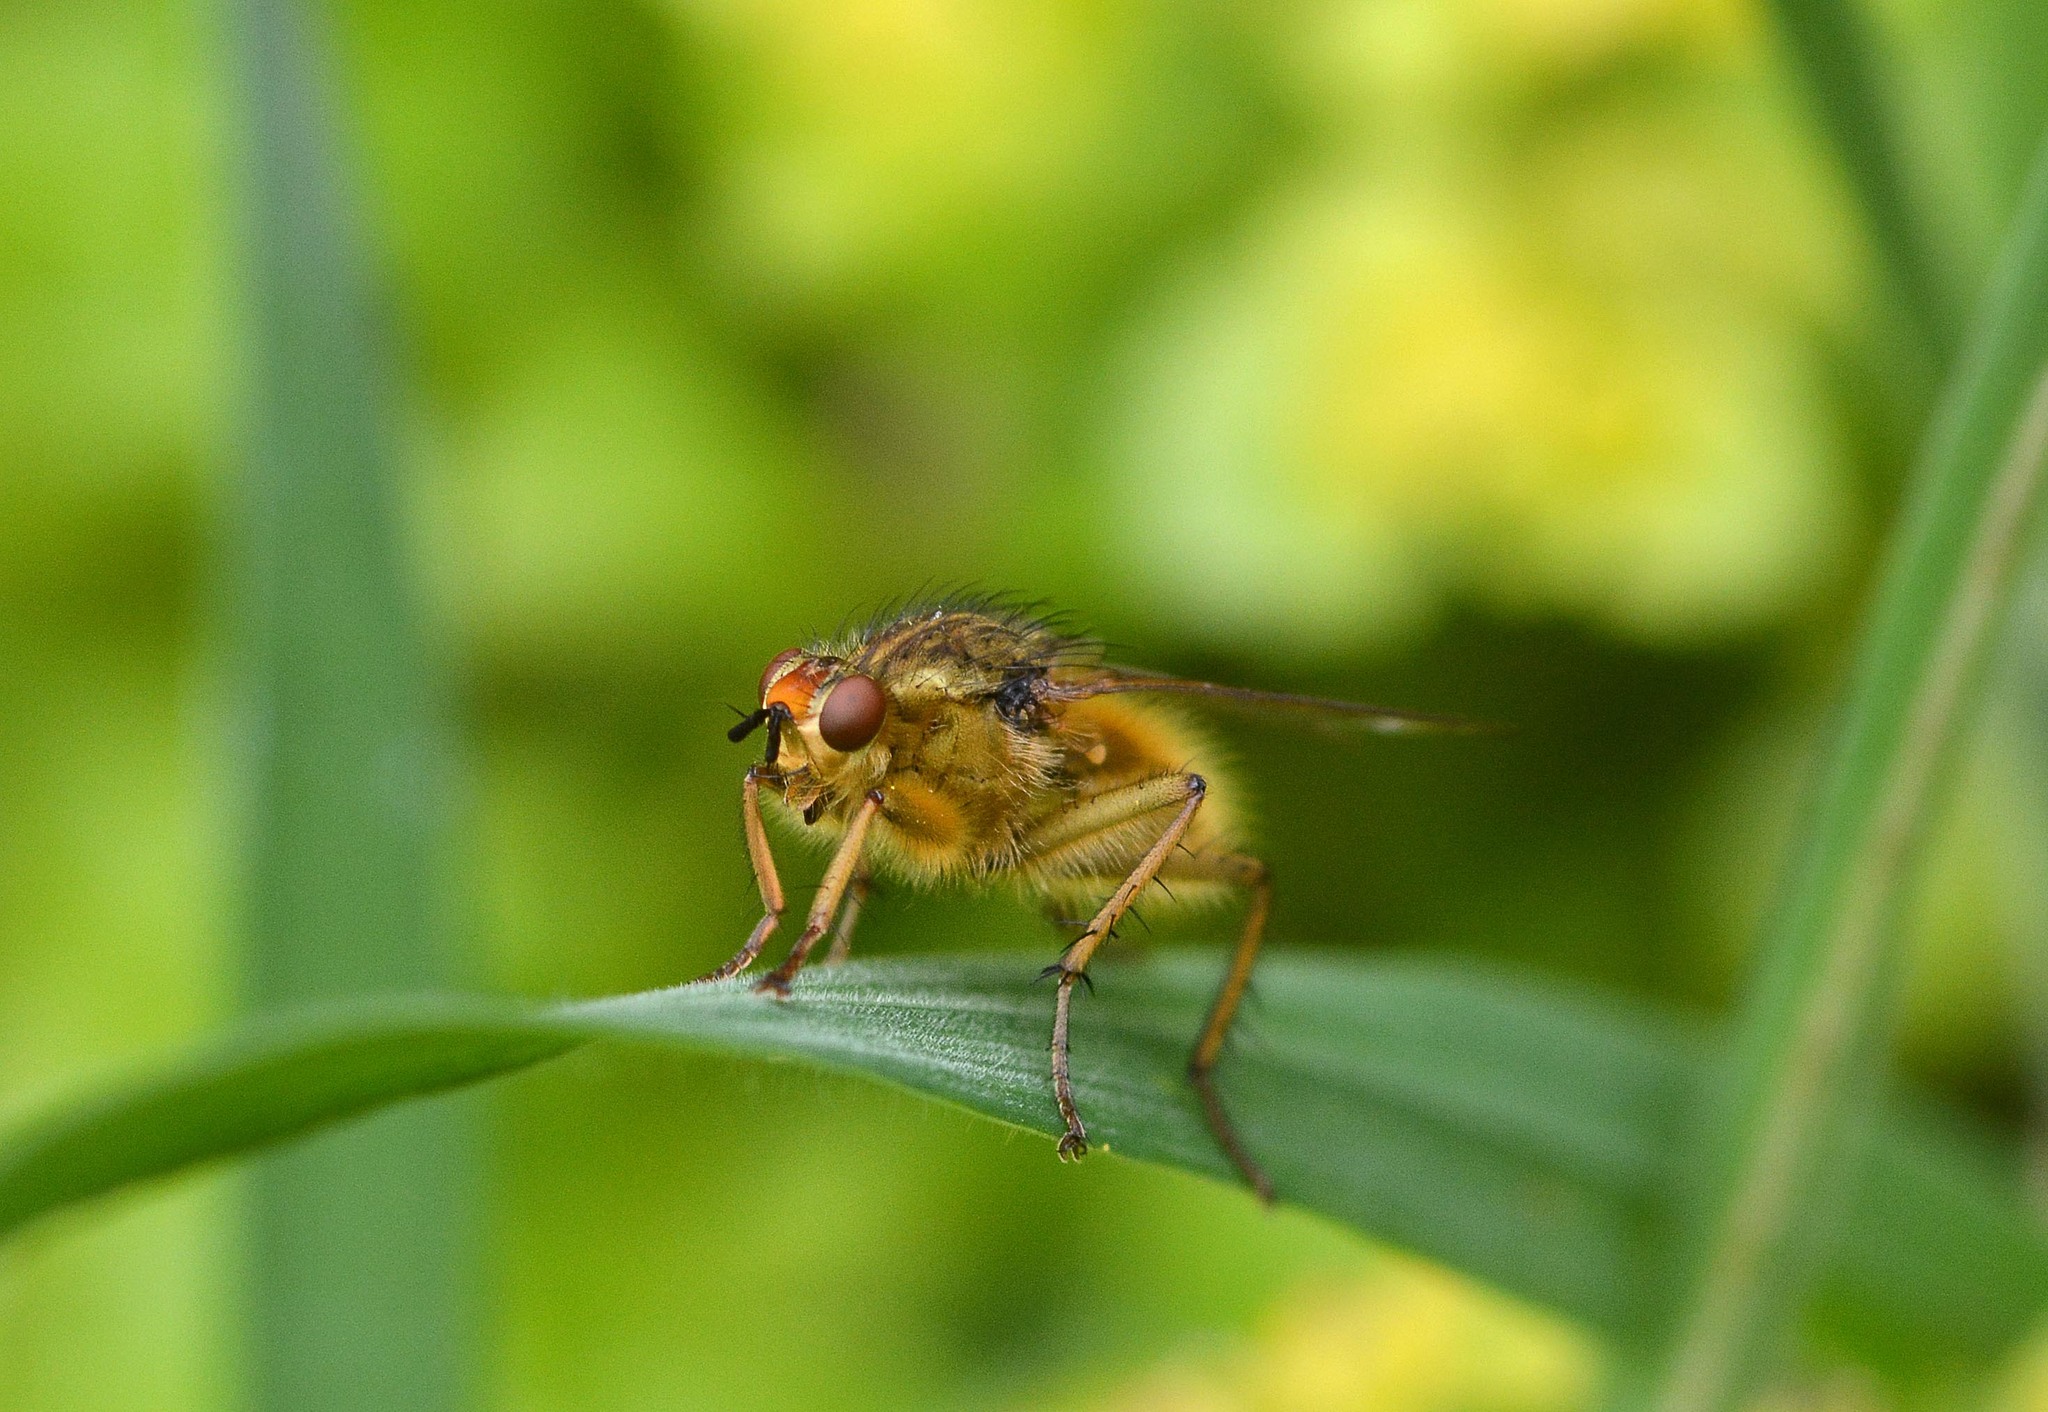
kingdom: Animalia
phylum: Arthropoda
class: Insecta
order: Diptera
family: Scathophagidae
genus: Scathophaga
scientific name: Scathophaga stercoraria
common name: Yellow dung fly
